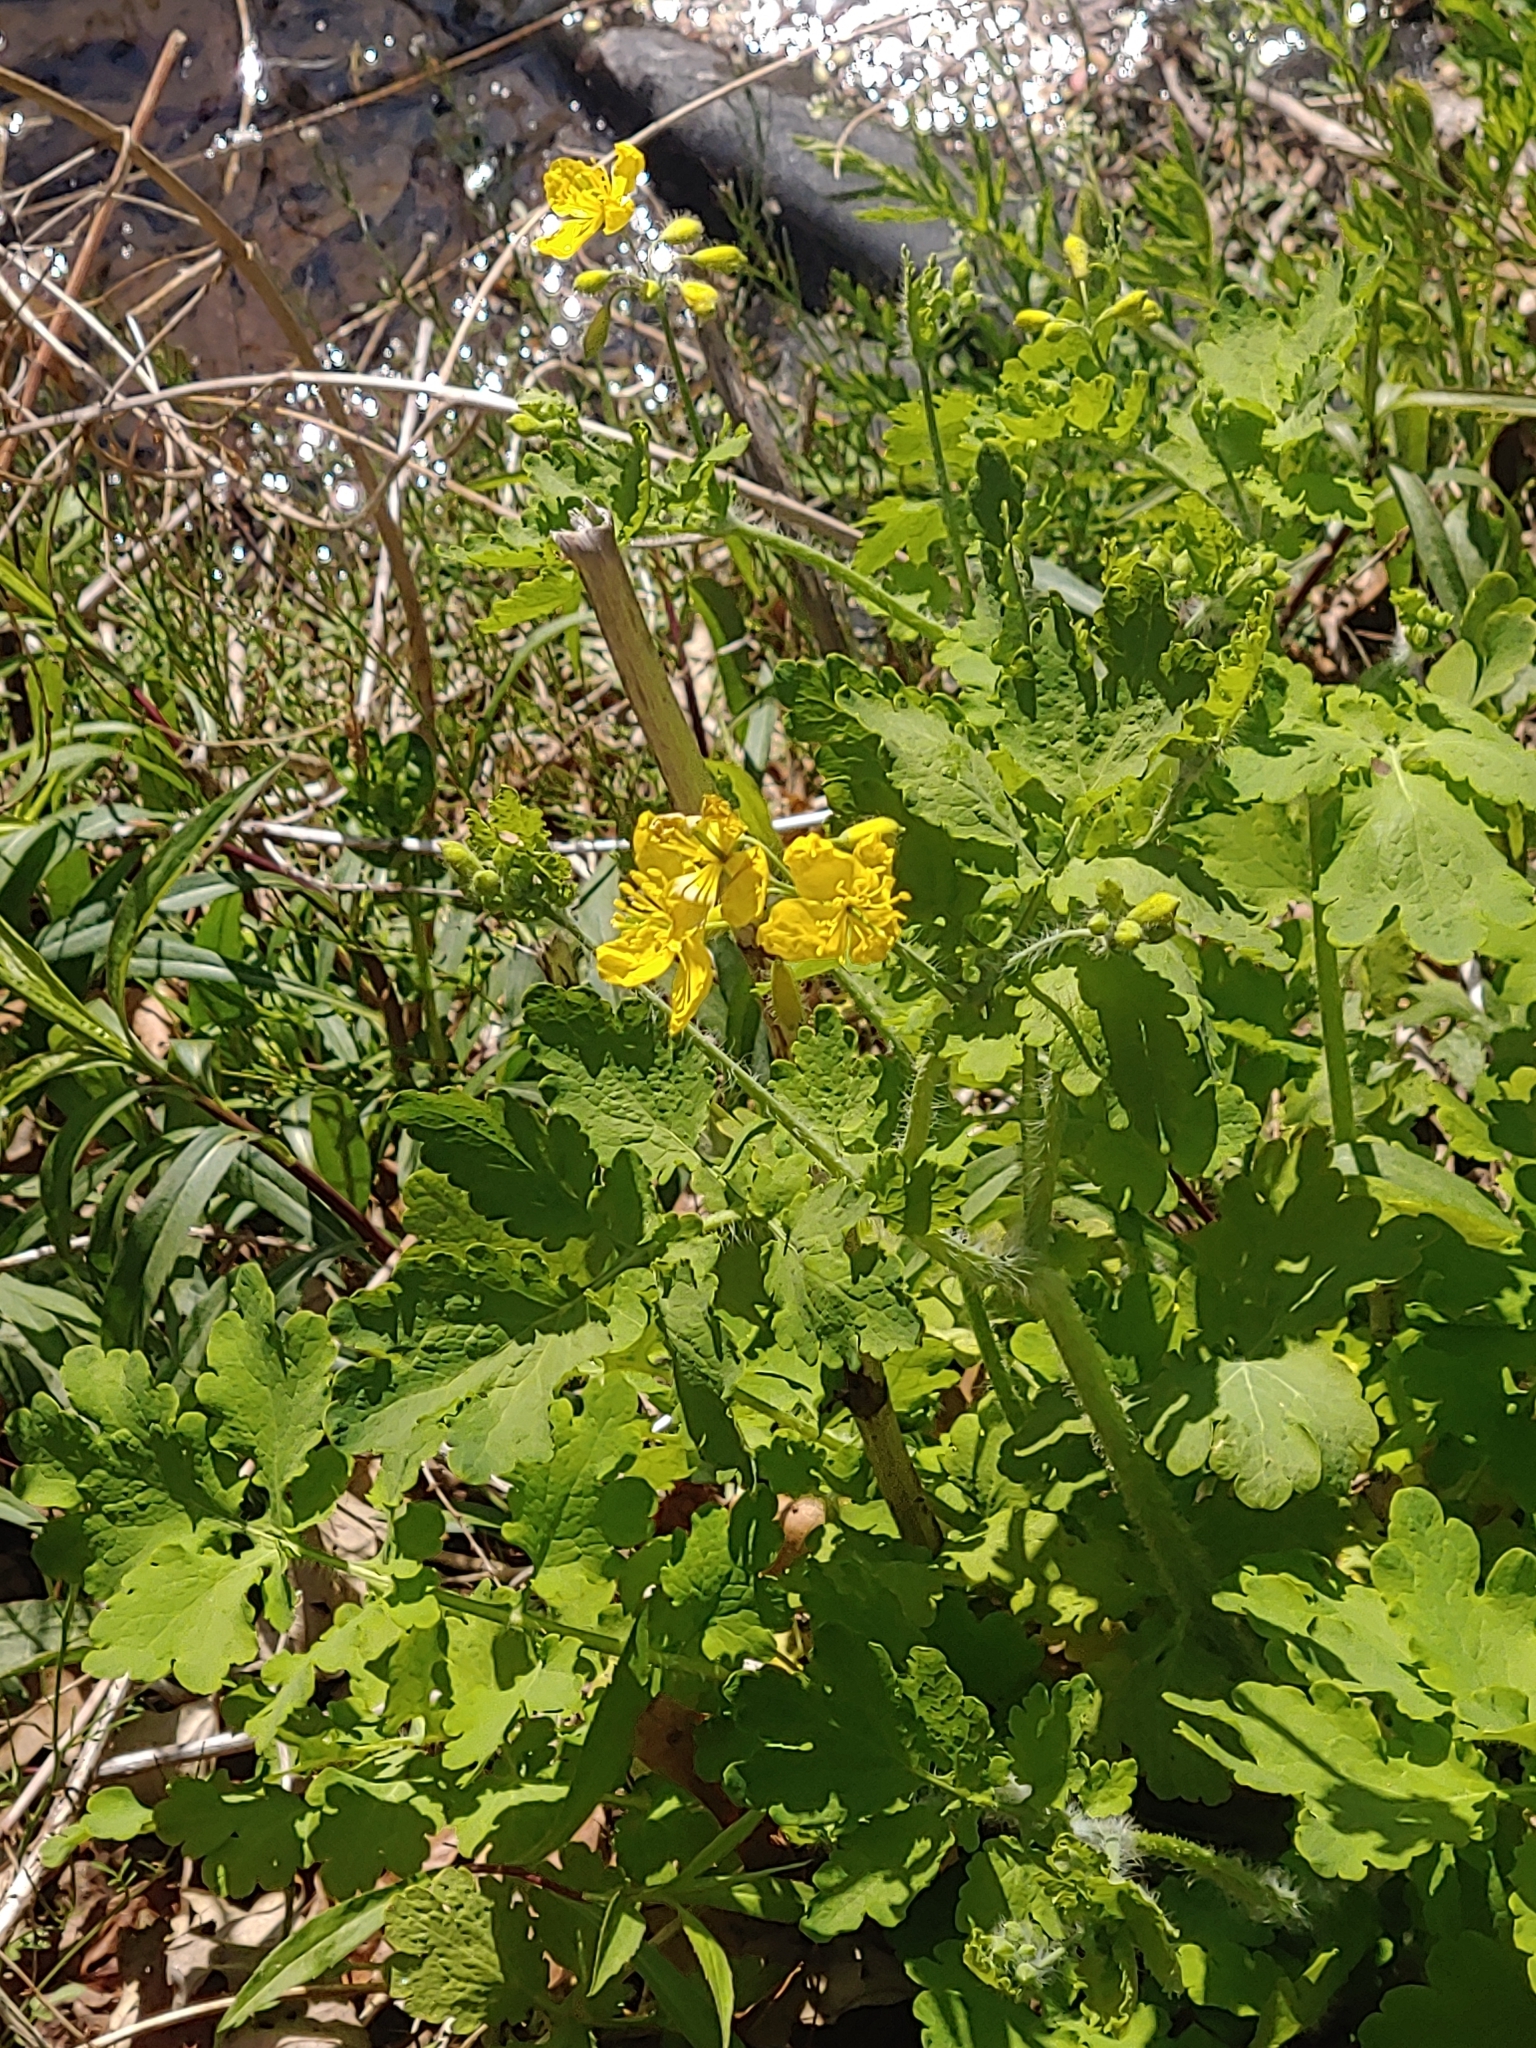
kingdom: Plantae
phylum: Tracheophyta
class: Magnoliopsida
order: Ranunculales
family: Papaveraceae
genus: Chelidonium
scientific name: Chelidonium majus
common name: Greater celandine
